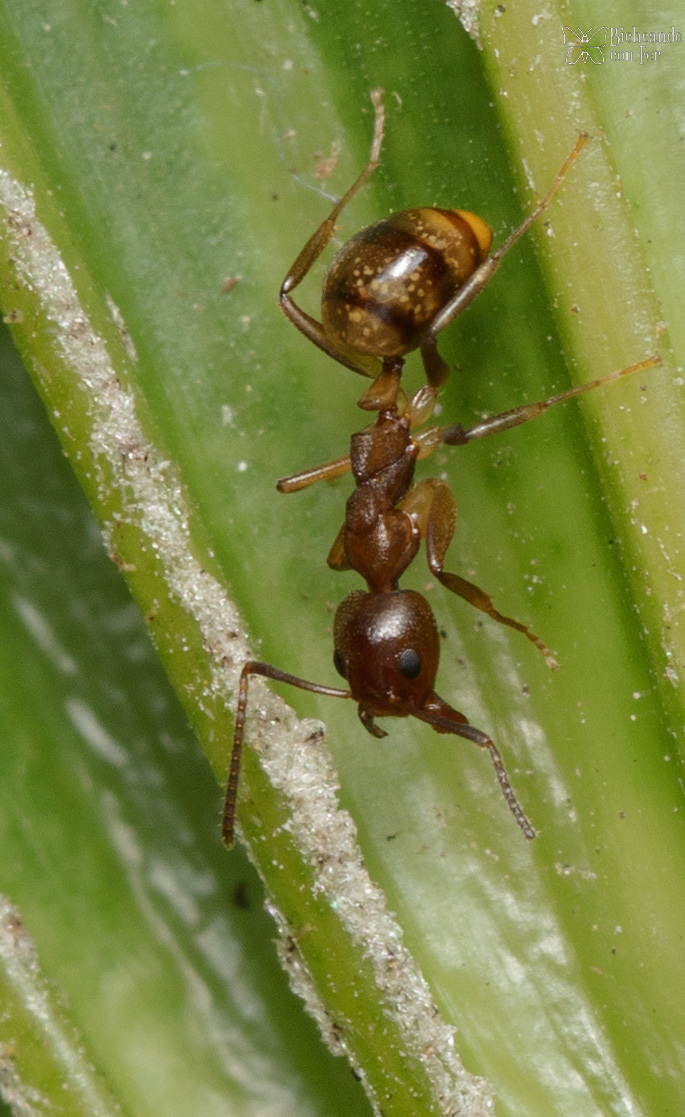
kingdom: Animalia
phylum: Arthropoda
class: Insecta
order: Hymenoptera
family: Formicidae
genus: Dolichoderus
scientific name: Dolichoderus lutosus
